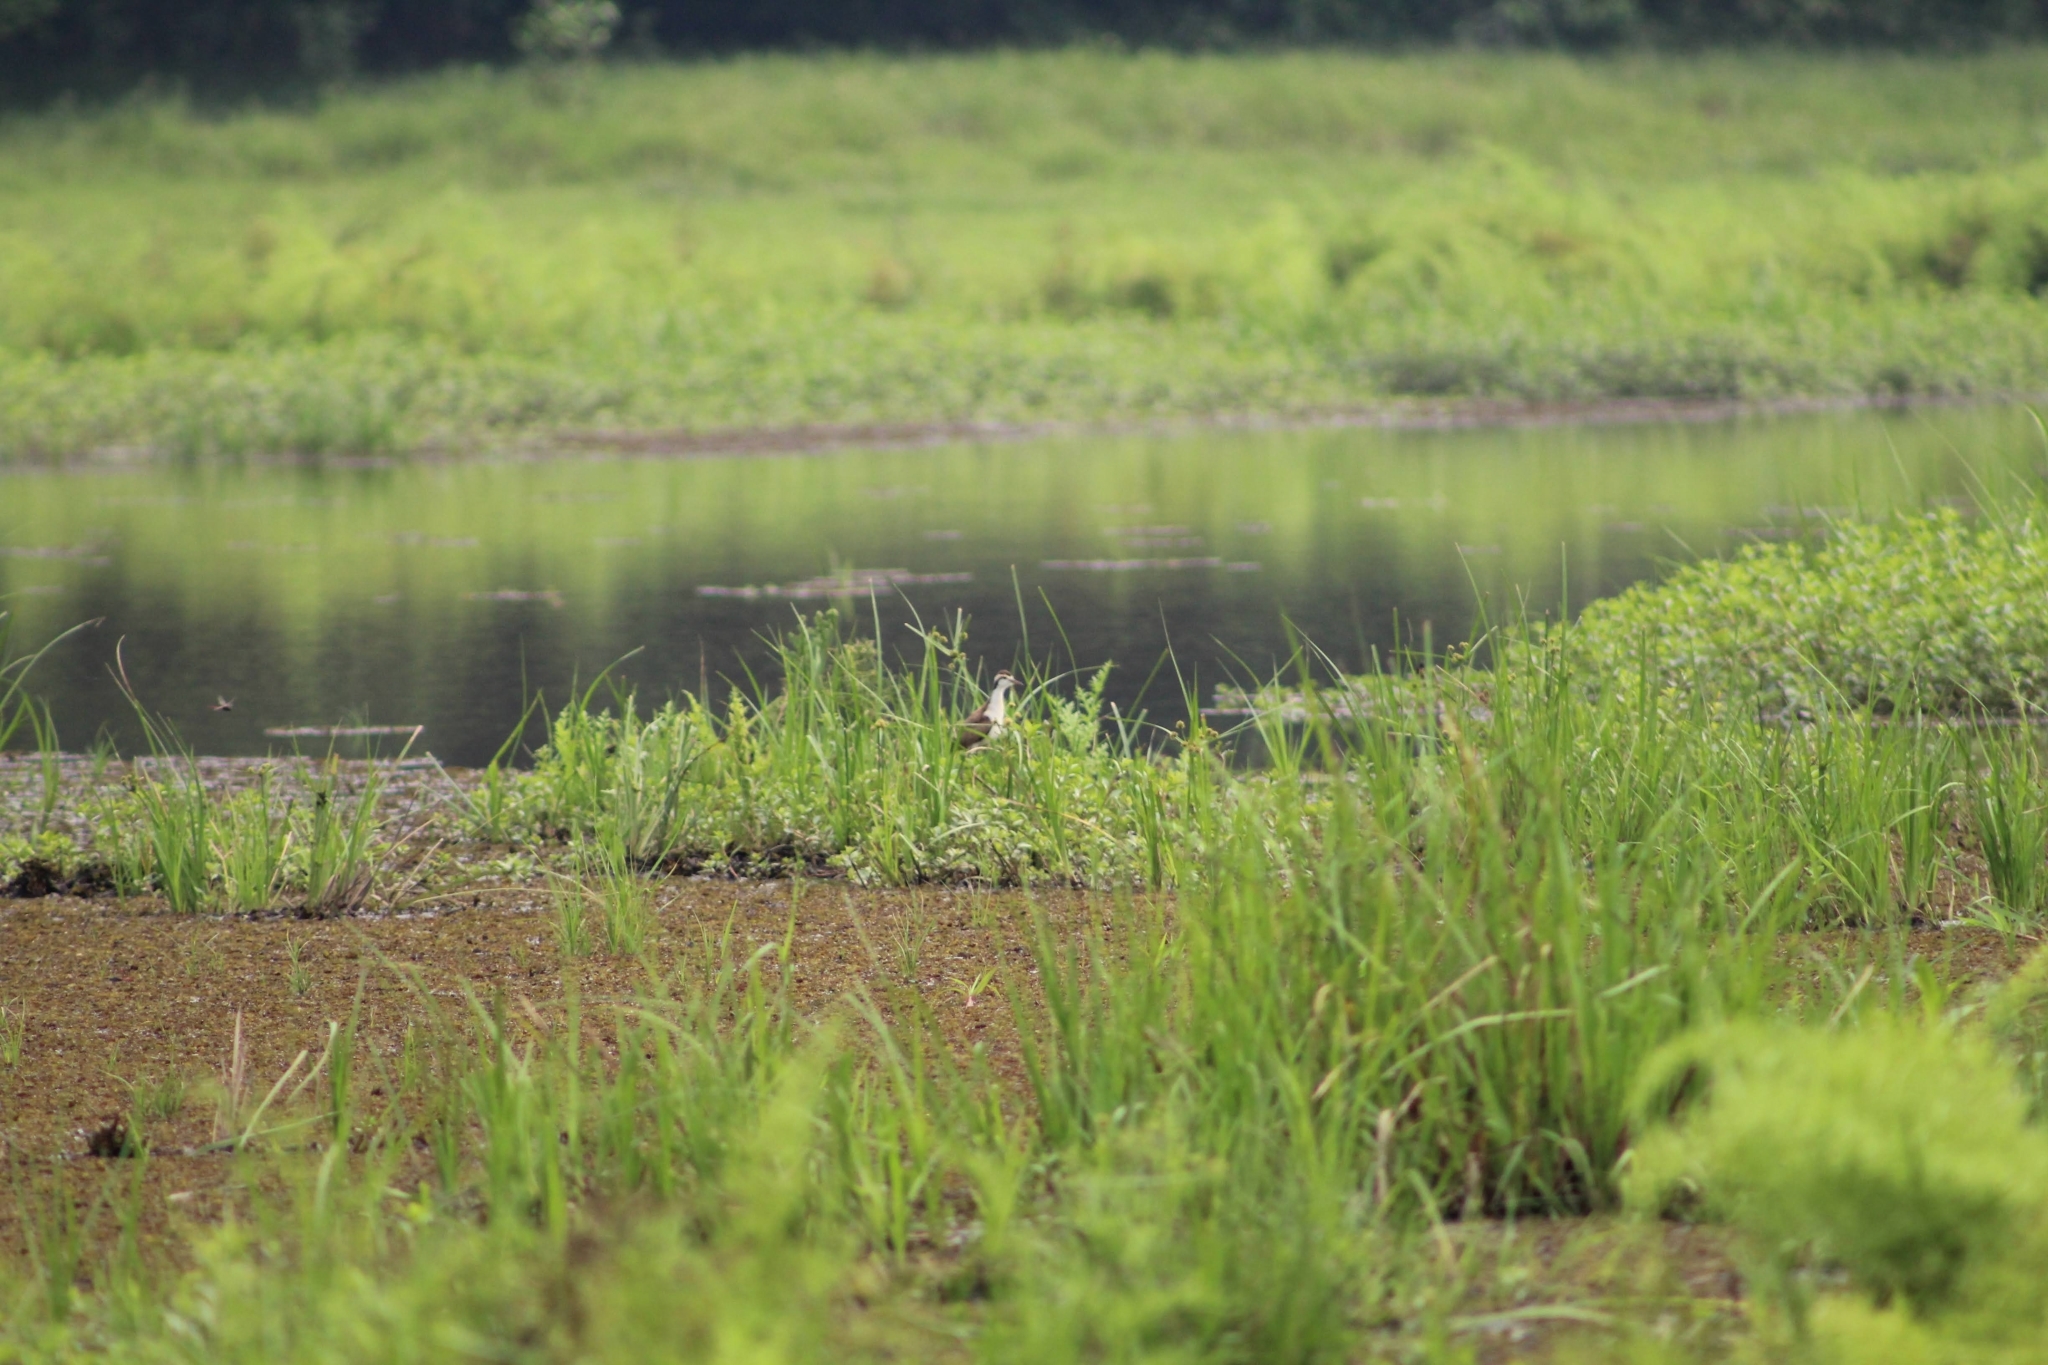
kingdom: Animalia
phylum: Chordata
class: Aves
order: Charadriiformes
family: Jacanidae
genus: Jacana
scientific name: Jacana jacana
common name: Wattled jacana
